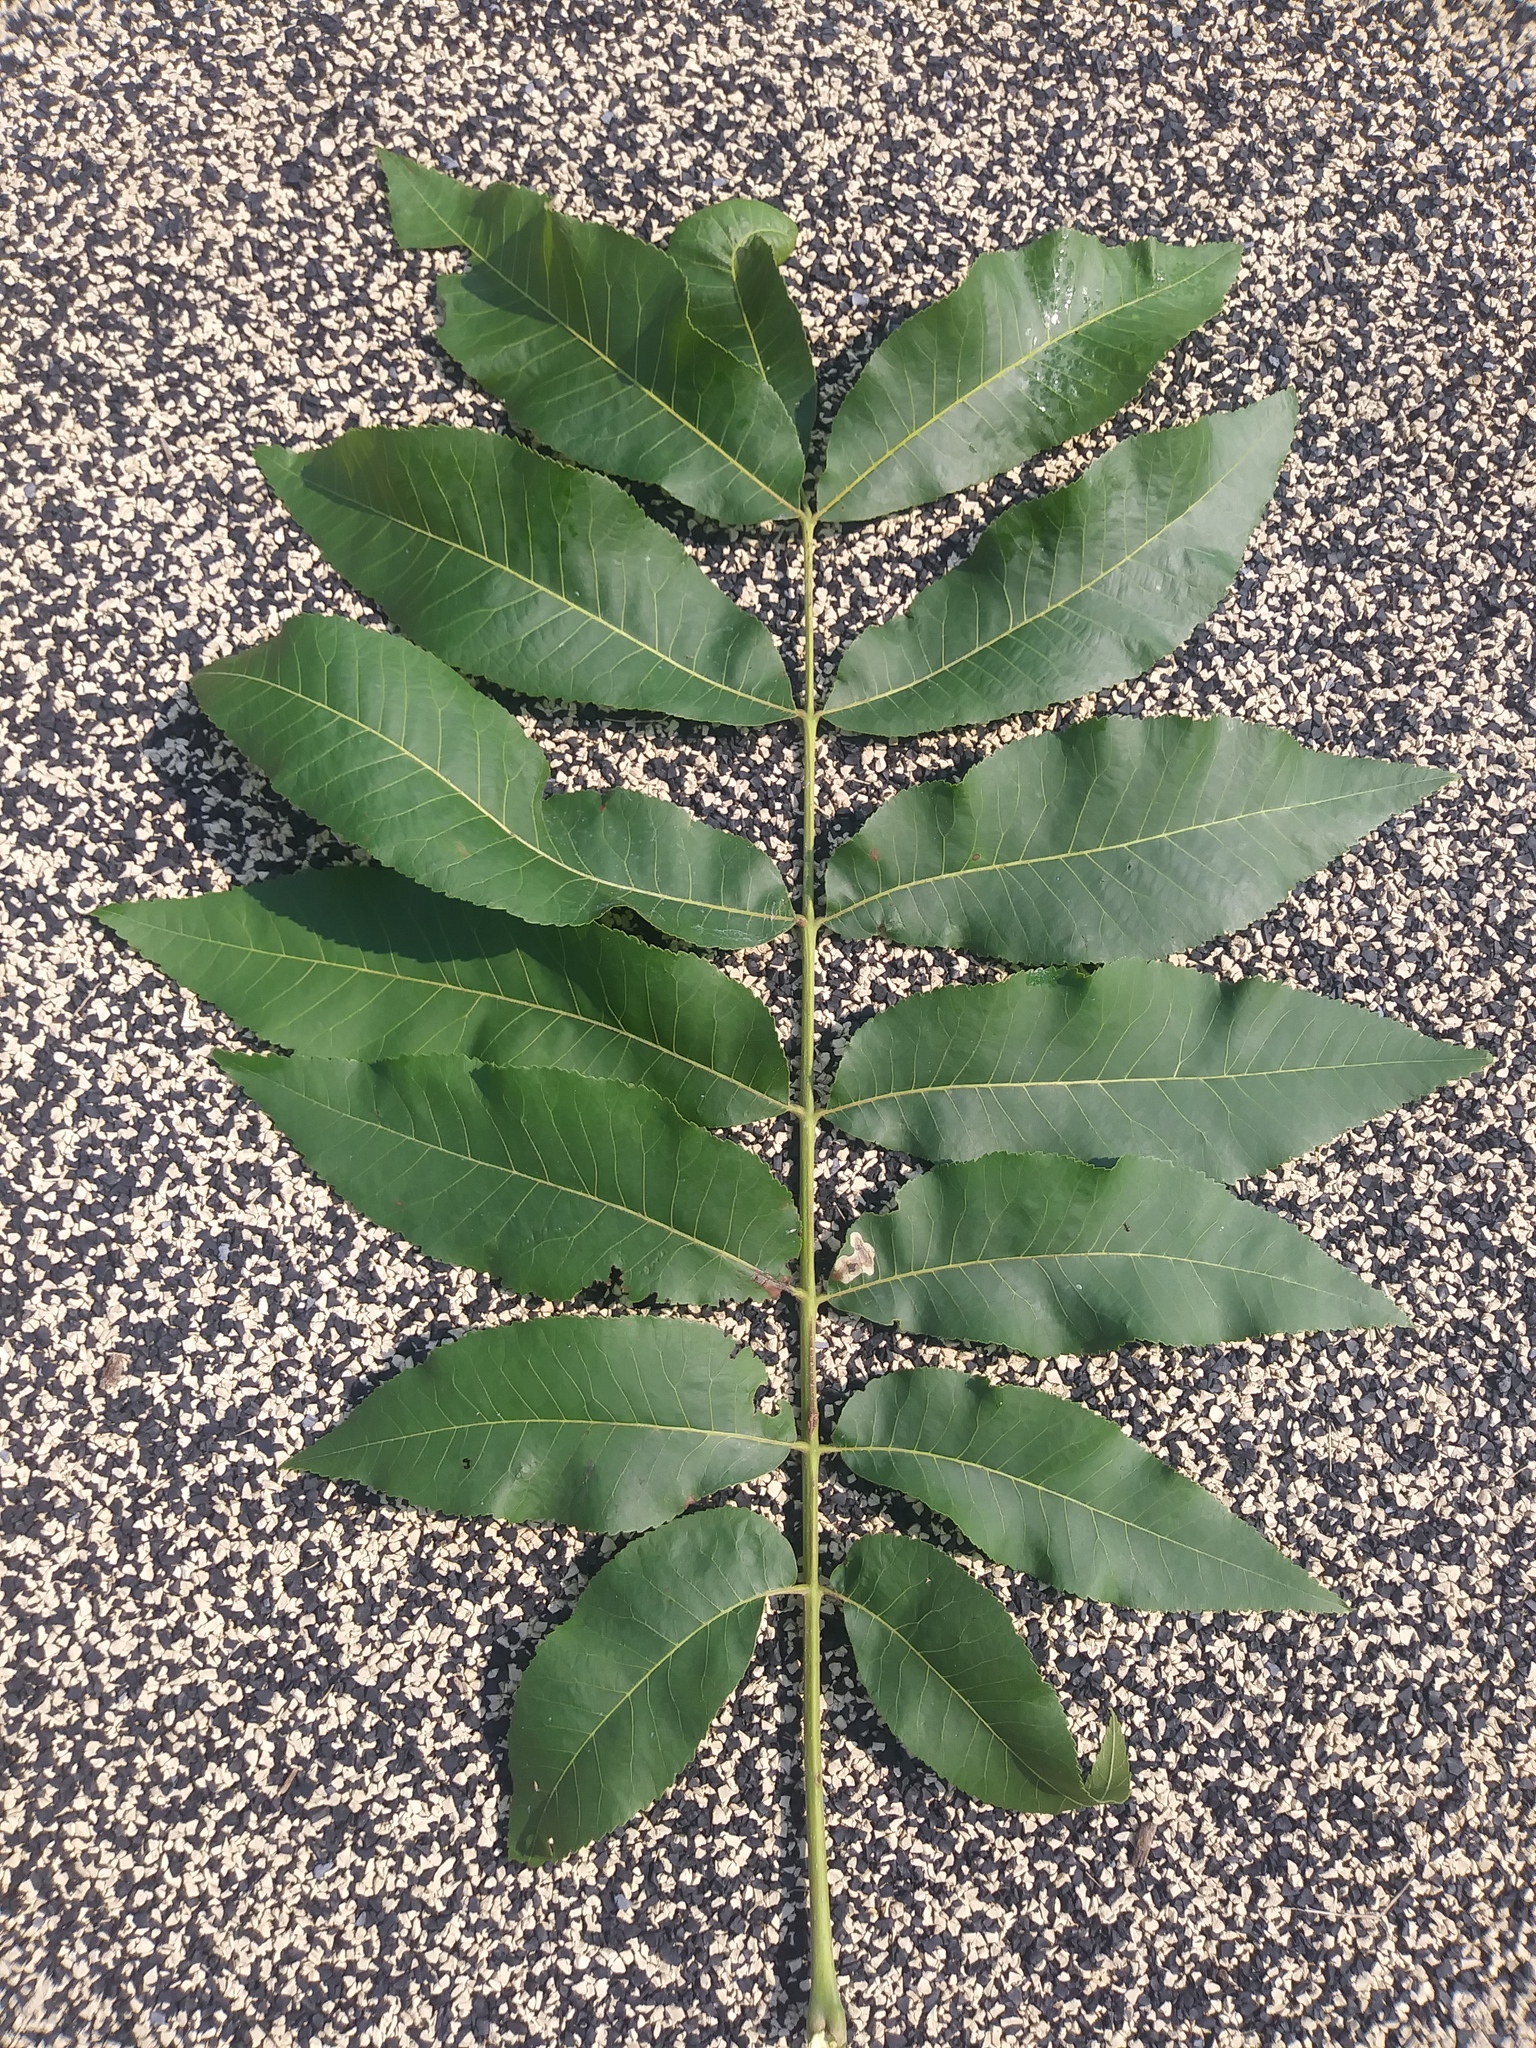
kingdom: Plantae
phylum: Tracheophyta
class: Magnoliopsida
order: Fagales
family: Juglandaceae
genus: Carya
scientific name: Carya illinoinensis
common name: Pecan
